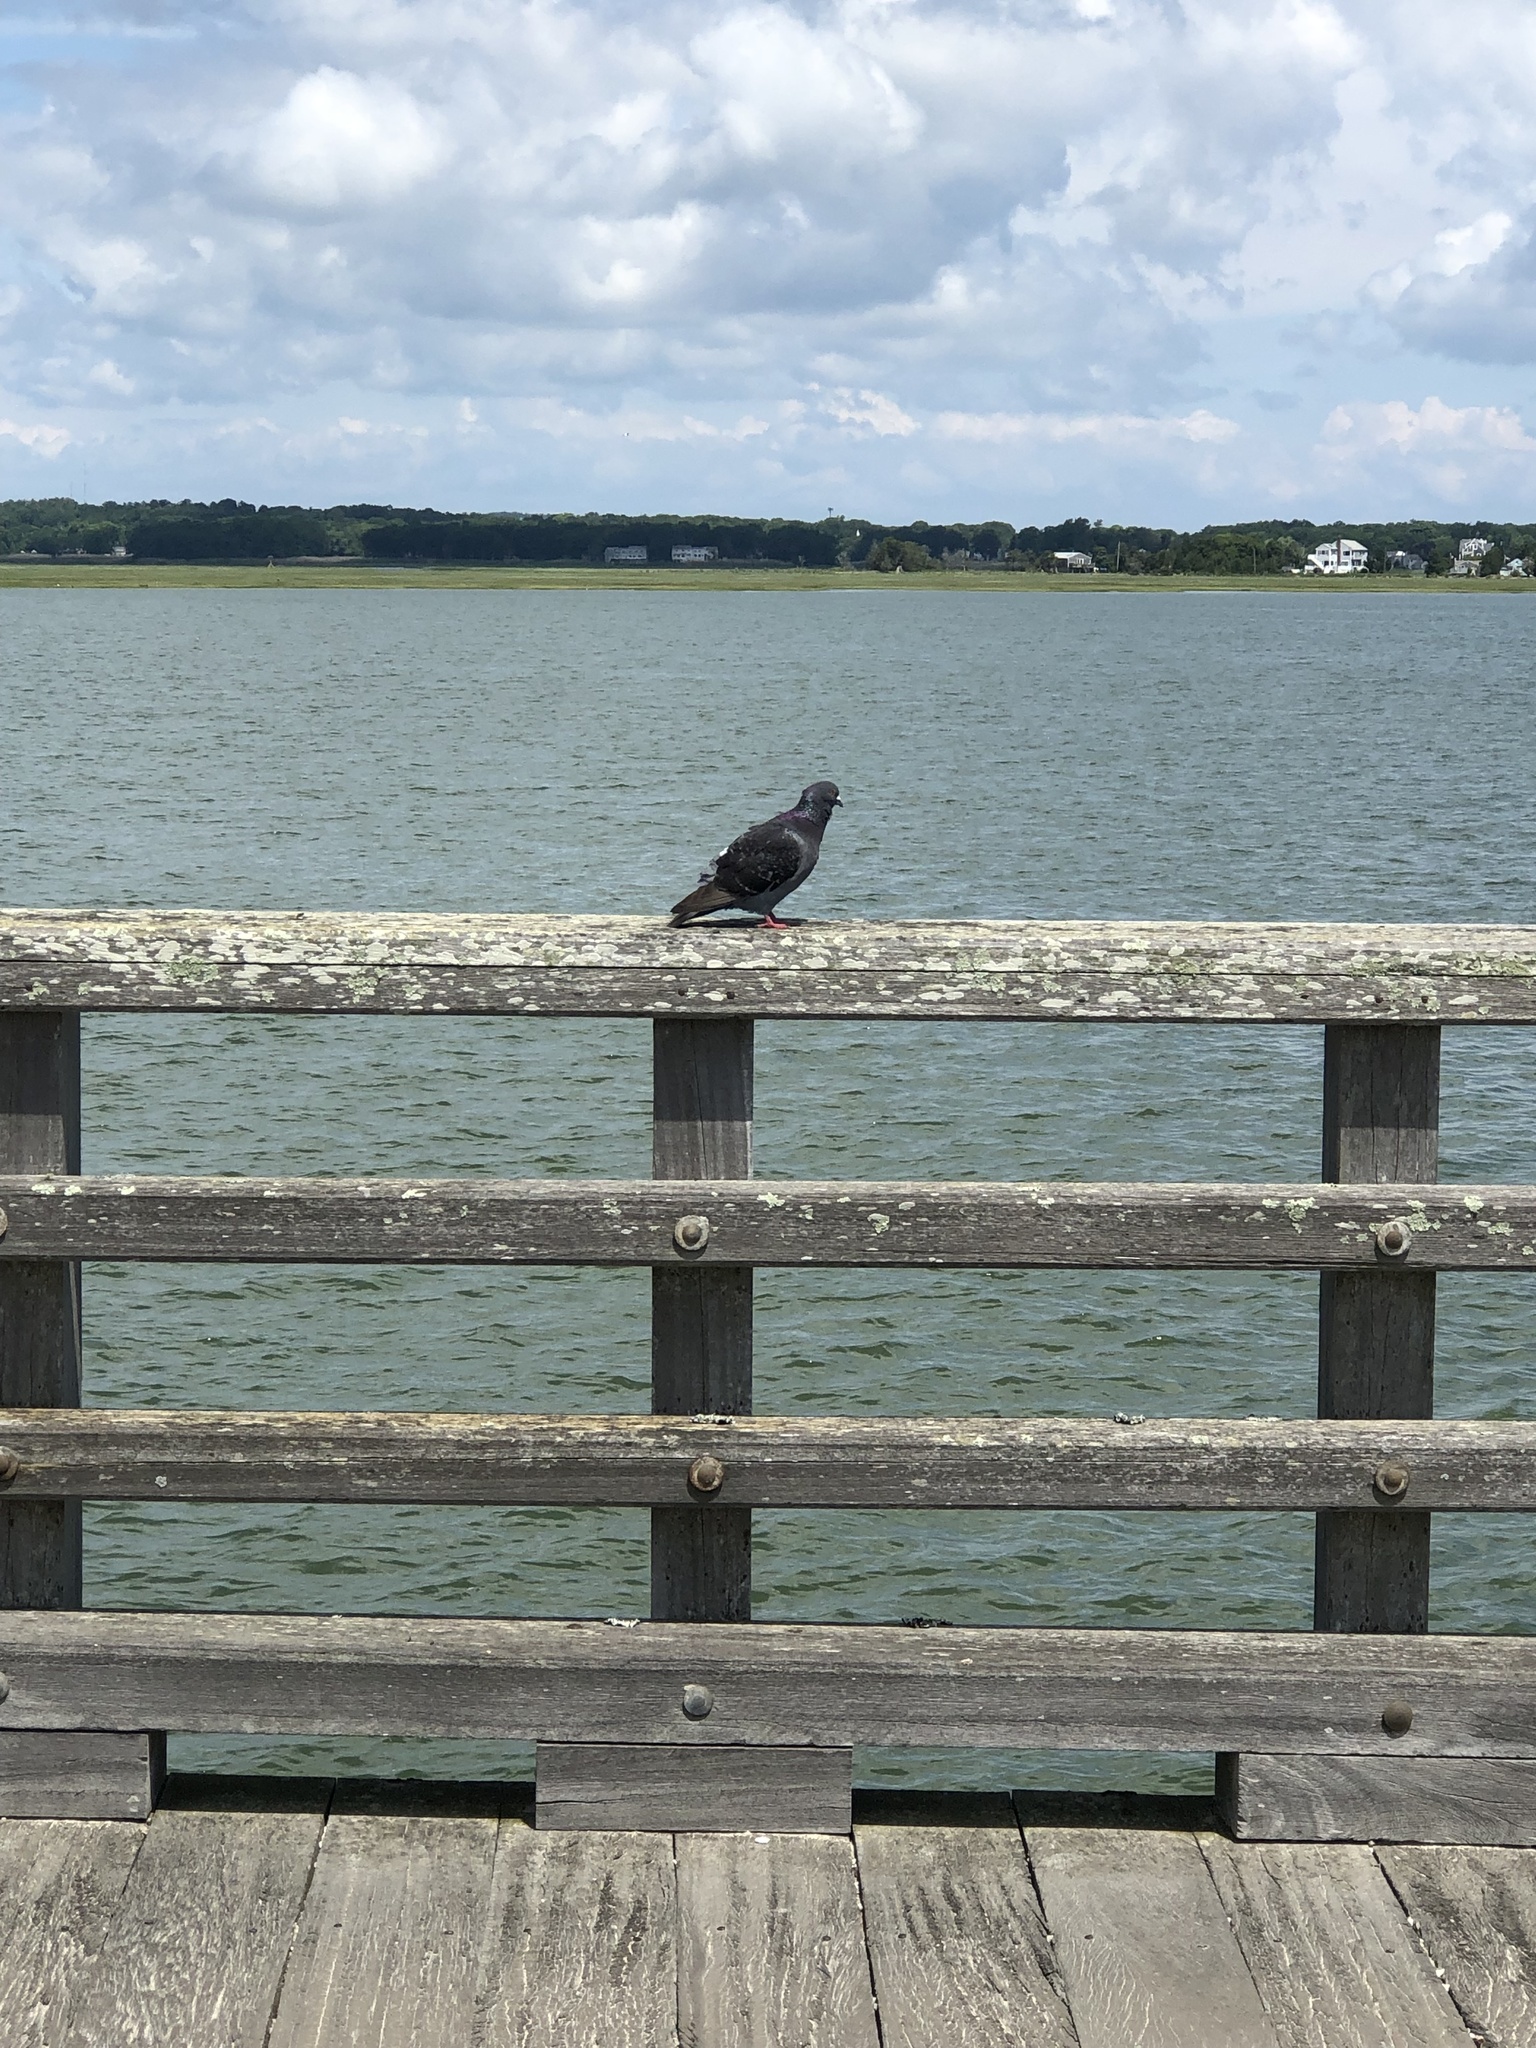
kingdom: Animalia
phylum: Chordata
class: Aves
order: Columbiformes
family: Columbidae
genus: Columba
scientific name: Columba livia
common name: Rock pigeon
